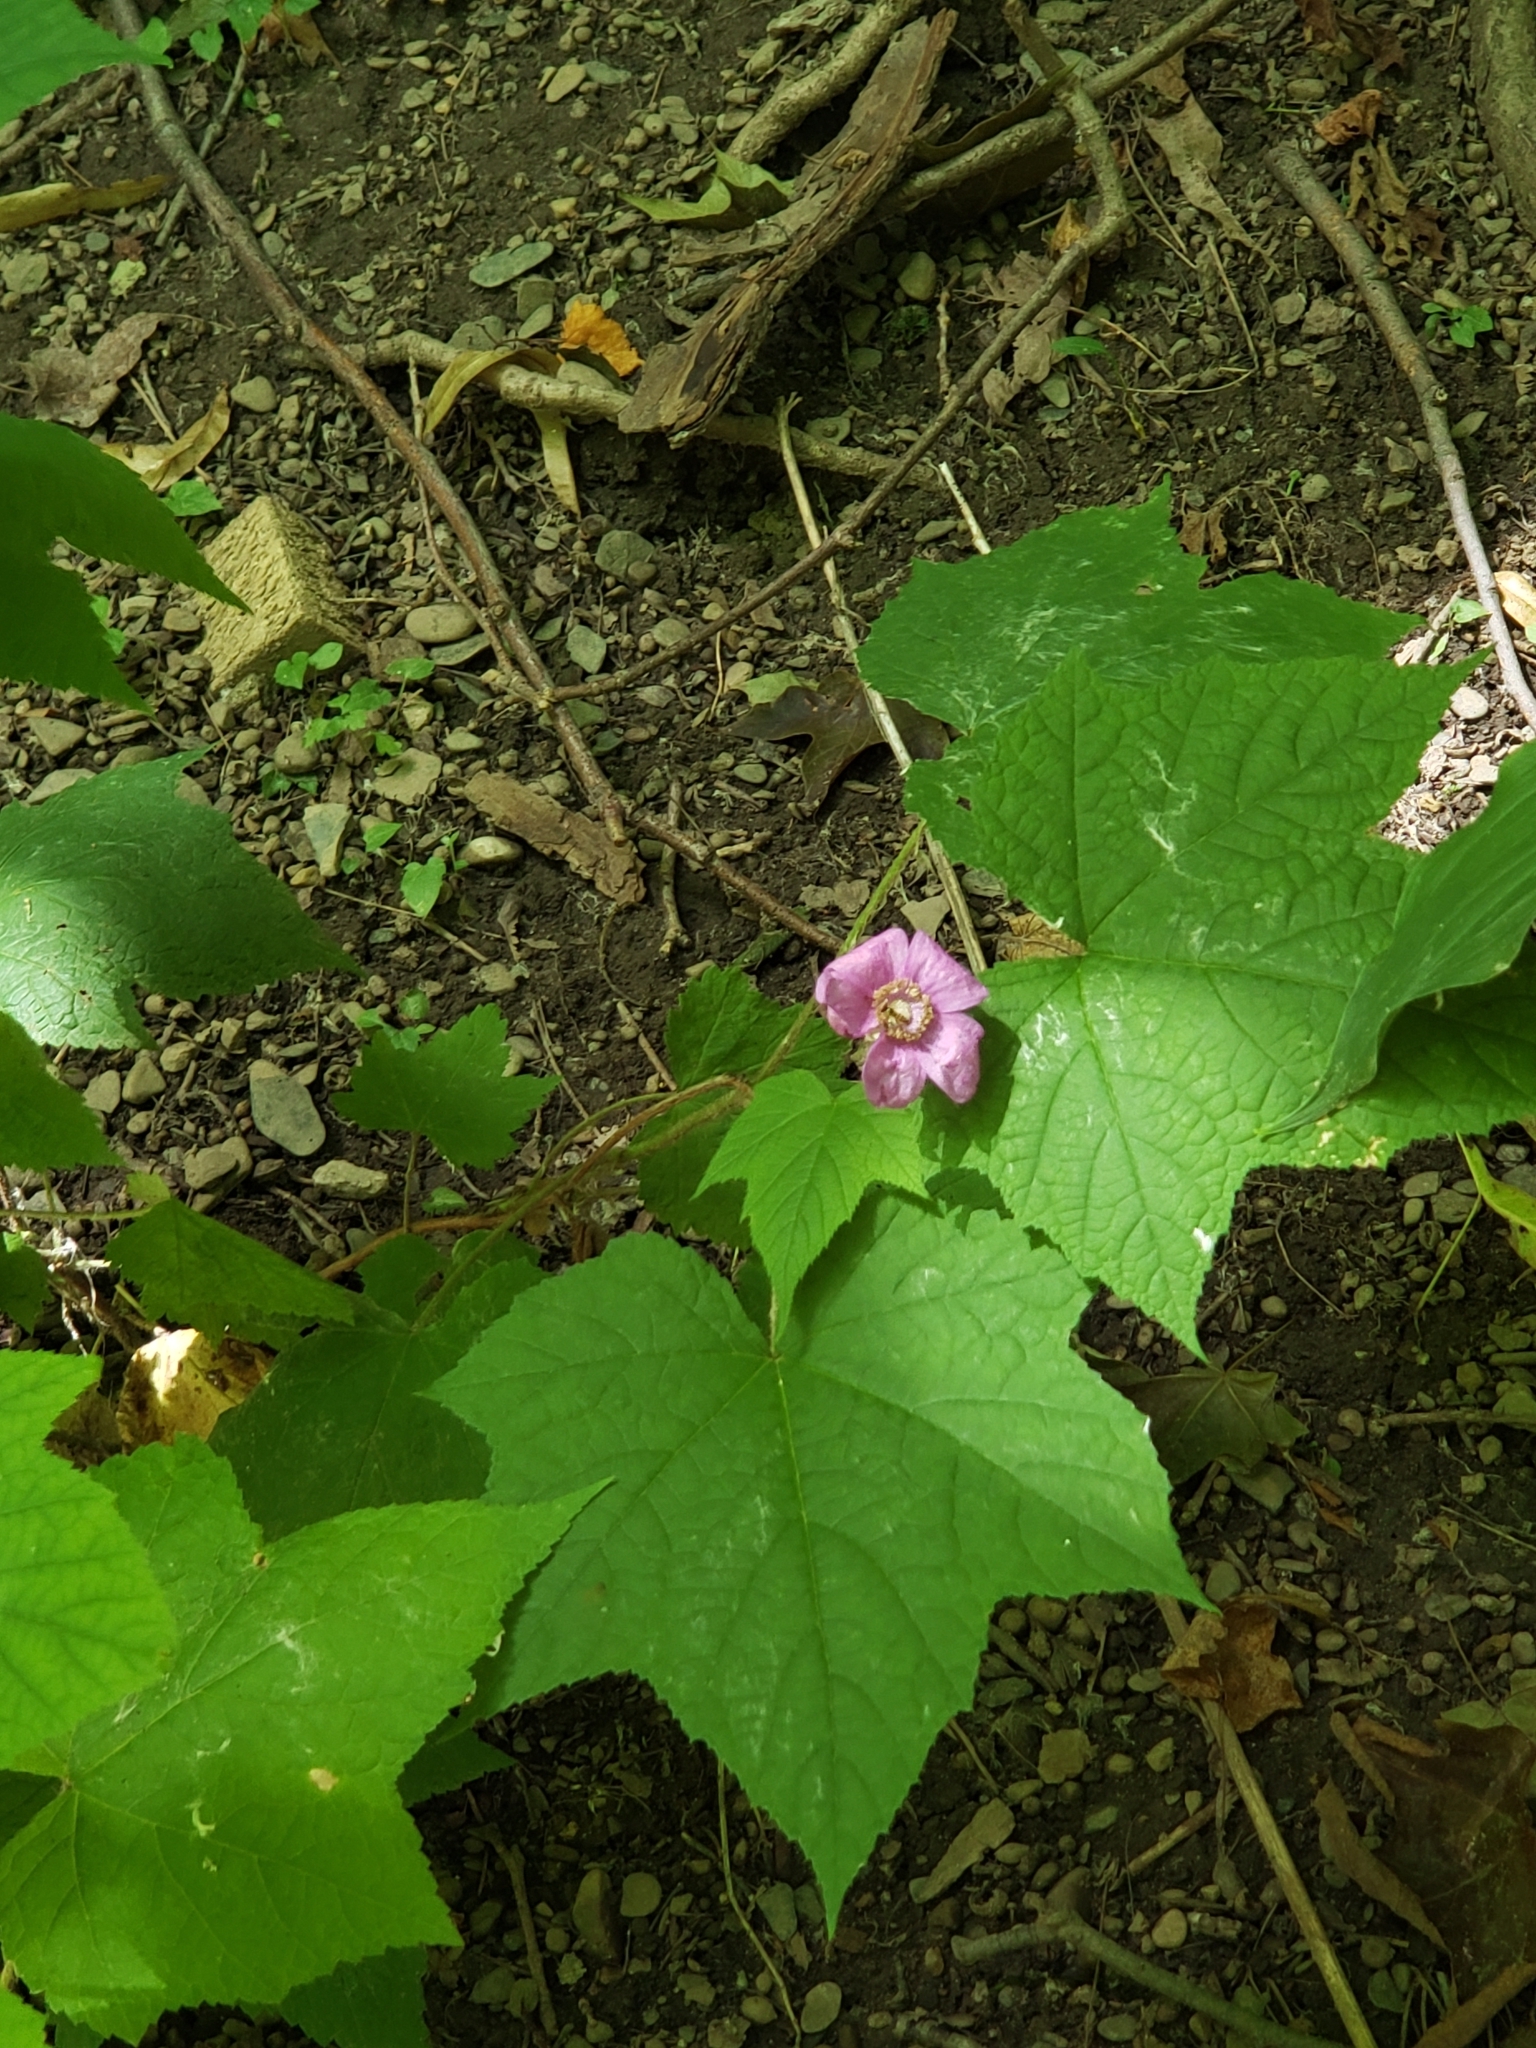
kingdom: Plantae
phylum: Tracheophyta
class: Magnoliopsida
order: Rosales
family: Rosaceae
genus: Rubus
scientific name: Rubus odoratus
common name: Purple-flowered raspberry
